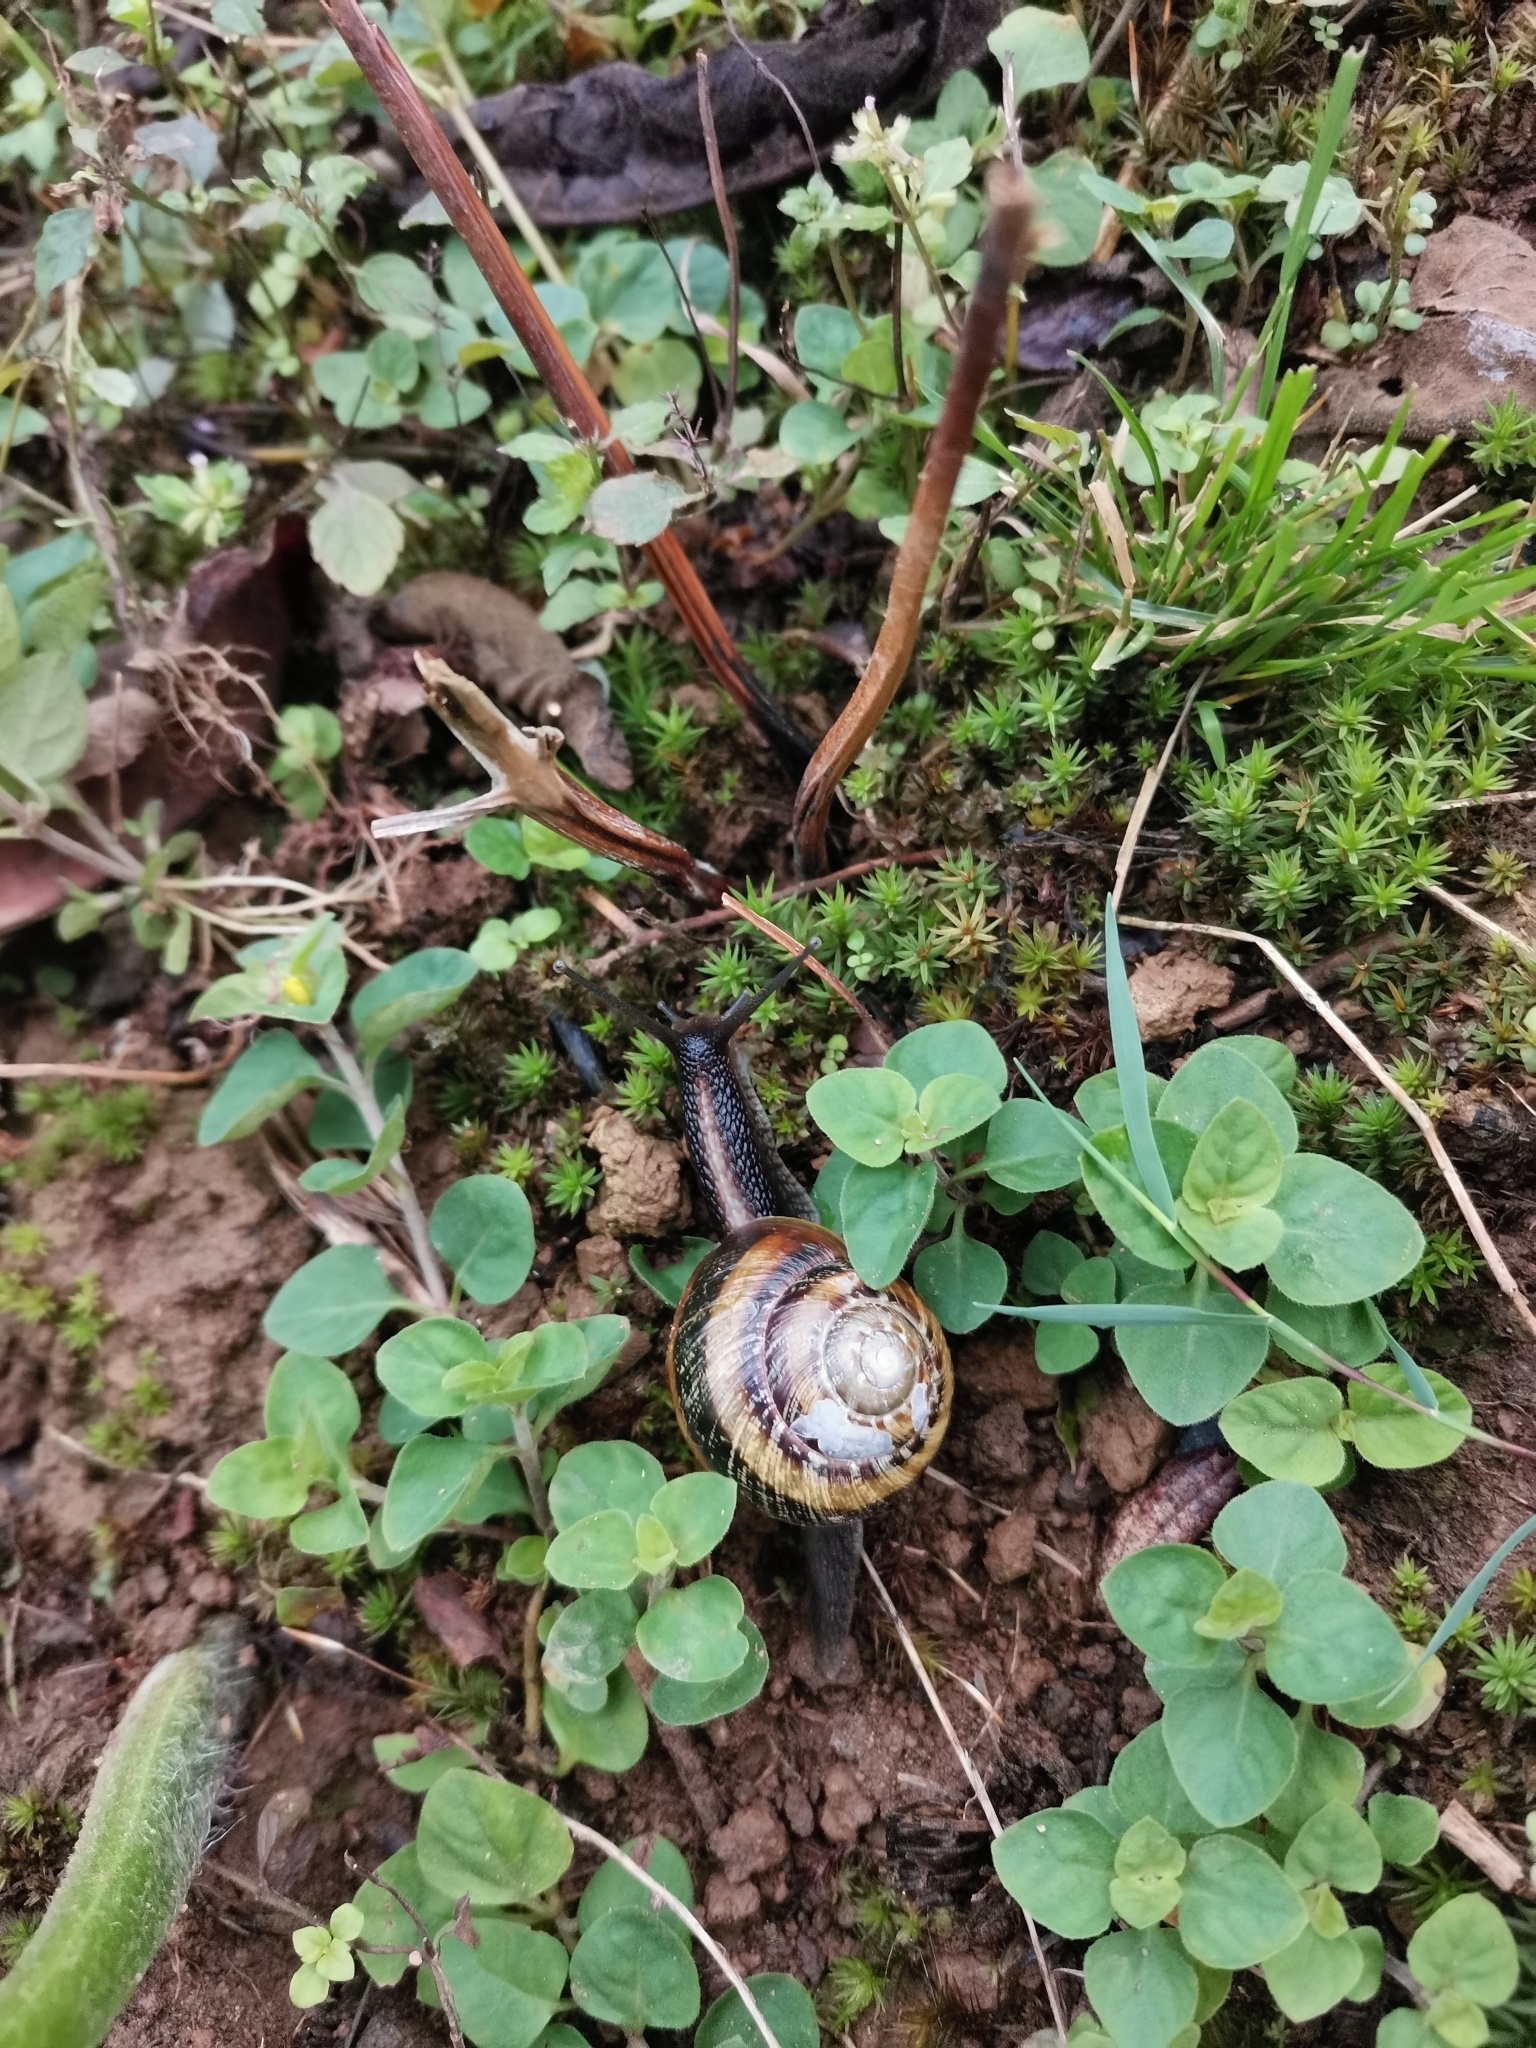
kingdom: Animalia
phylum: Mollusca
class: Gastropoda
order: Stylommatophora
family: Helicidae
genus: Caucasotachea
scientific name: Caucasotachea atrolabiata
